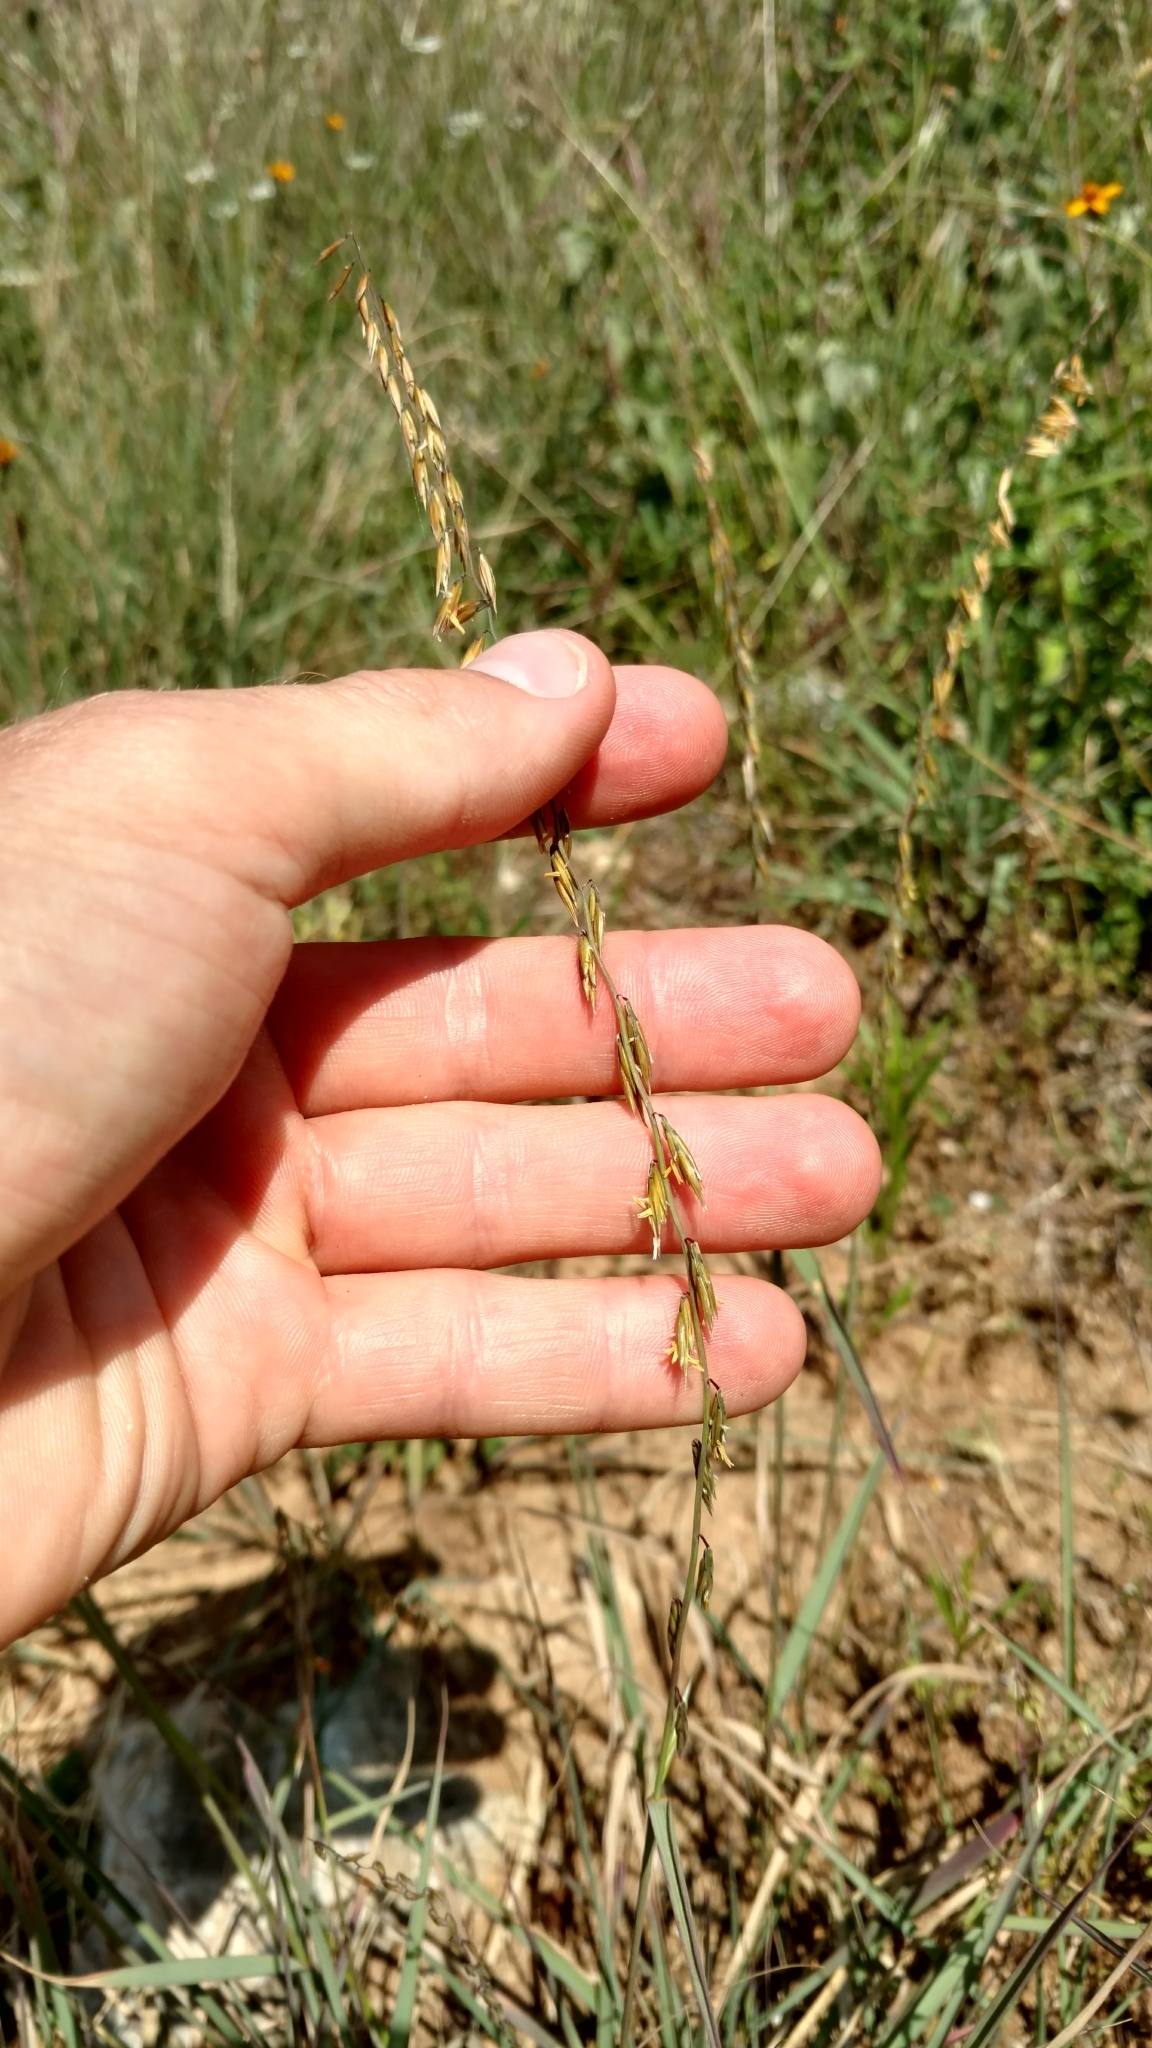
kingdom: Plantae
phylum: Tracheophyta
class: Liliopsida
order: Poales
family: Poaceae
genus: Bouteloua
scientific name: Bouteloua curtipendula
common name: Side-oats grama
